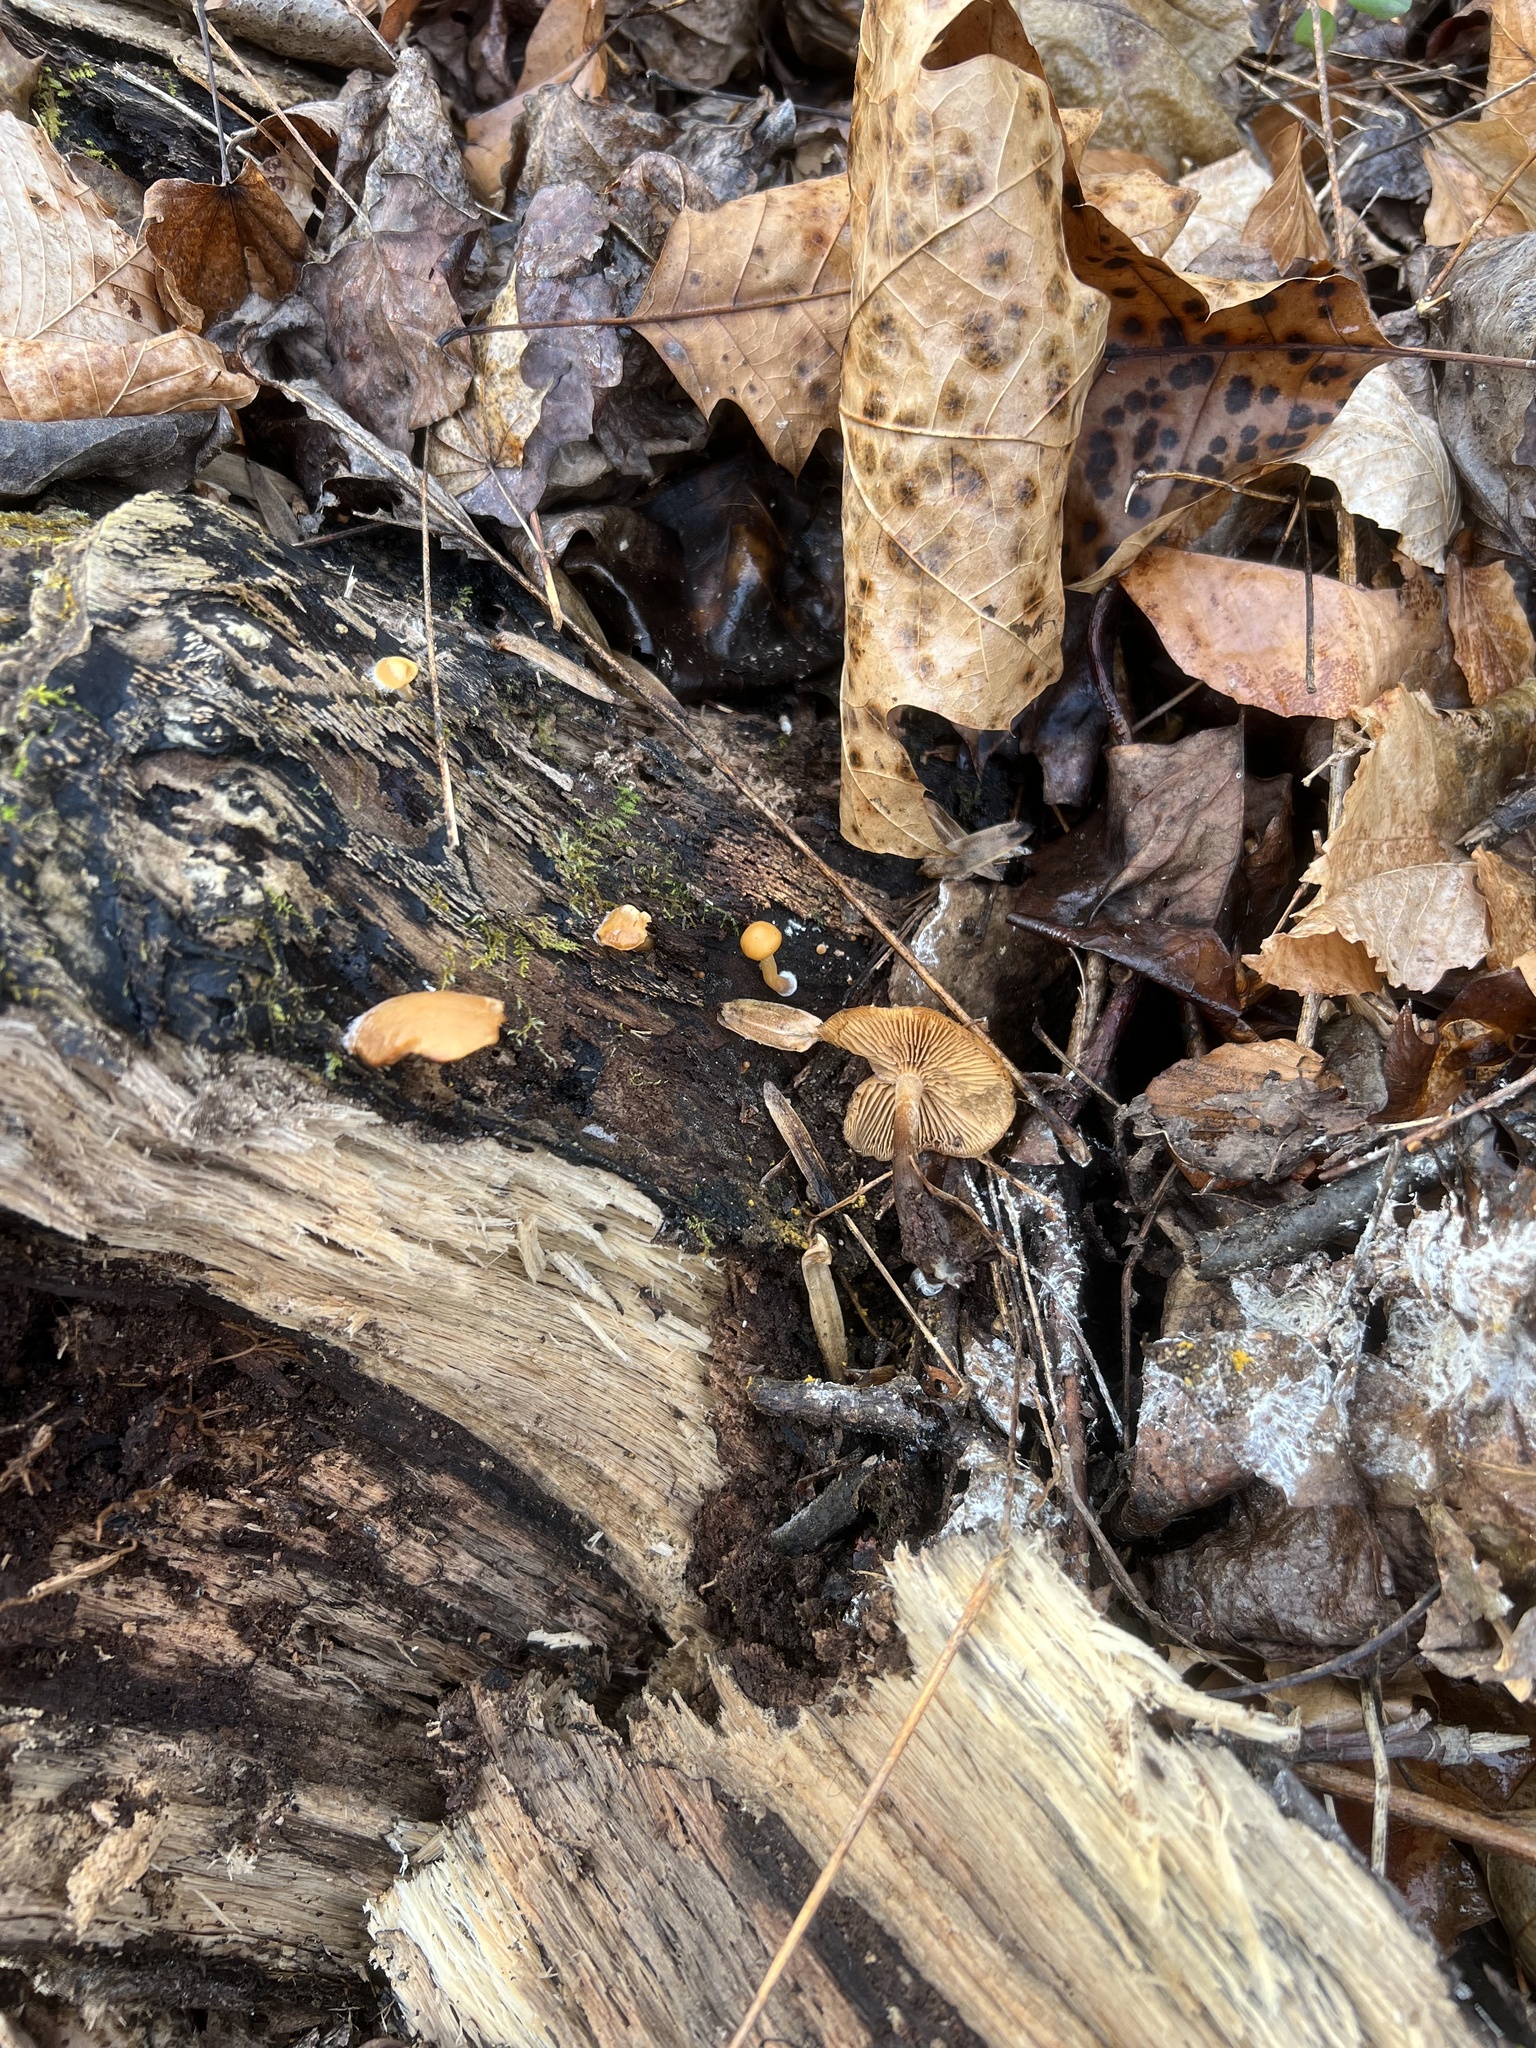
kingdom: Fungi
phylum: Basidiomycota
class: Agaricomycetes
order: Agaricales
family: Hymenogastraceae
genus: Galerina
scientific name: Galerina marginata
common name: Funeral bell
